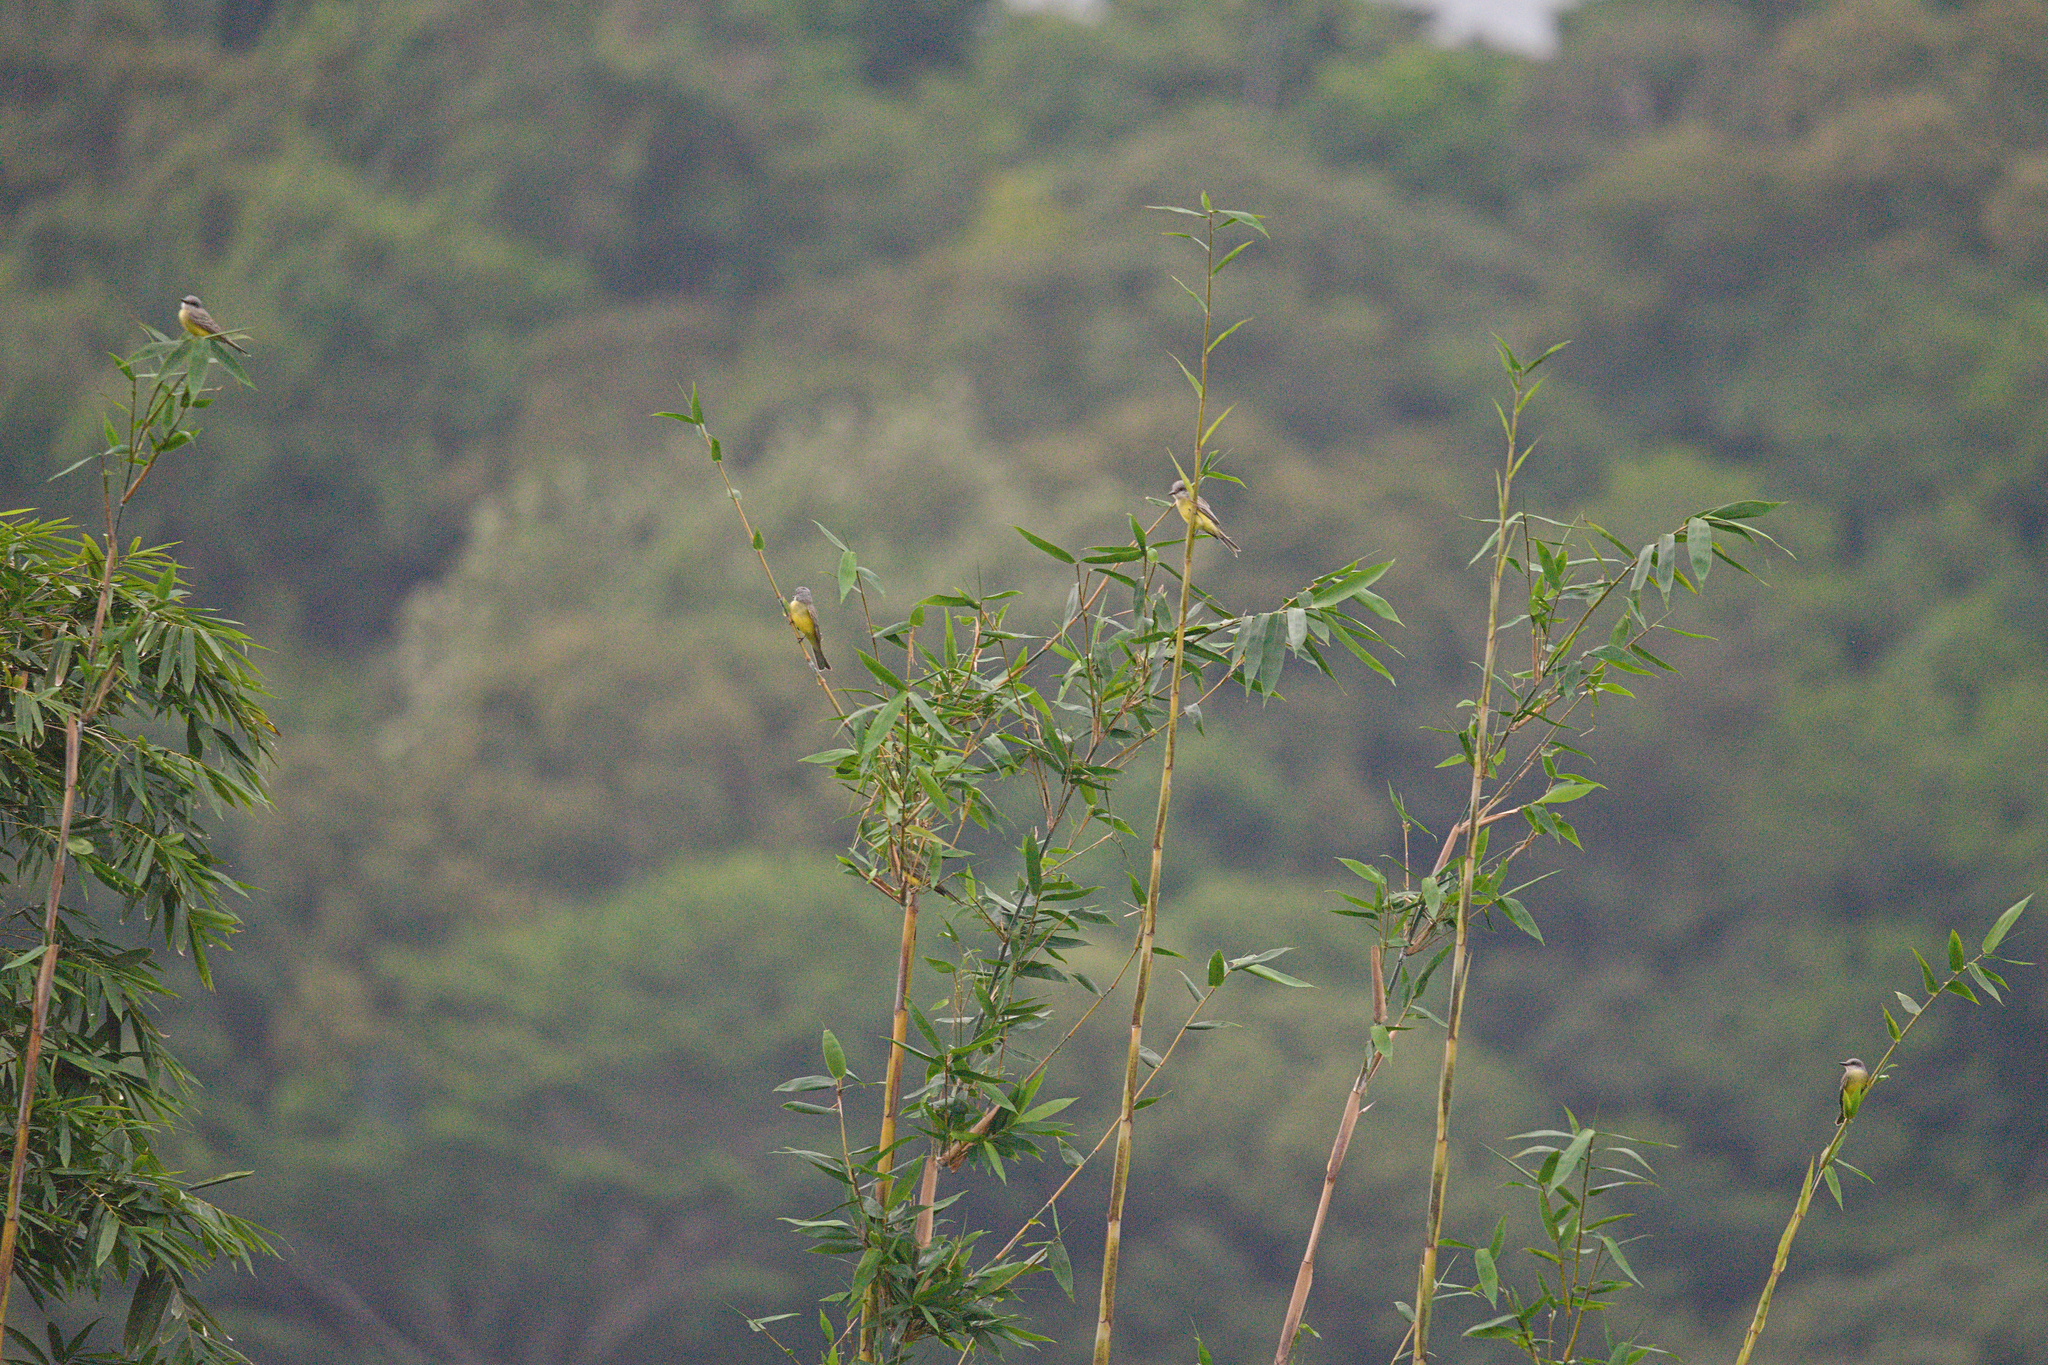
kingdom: Animalia
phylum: Chordata
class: Aves
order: Passeriformes
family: Tyrannidae
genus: Tyrannus
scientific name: Tyrannus melancholicus
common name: Tropical kingbird
